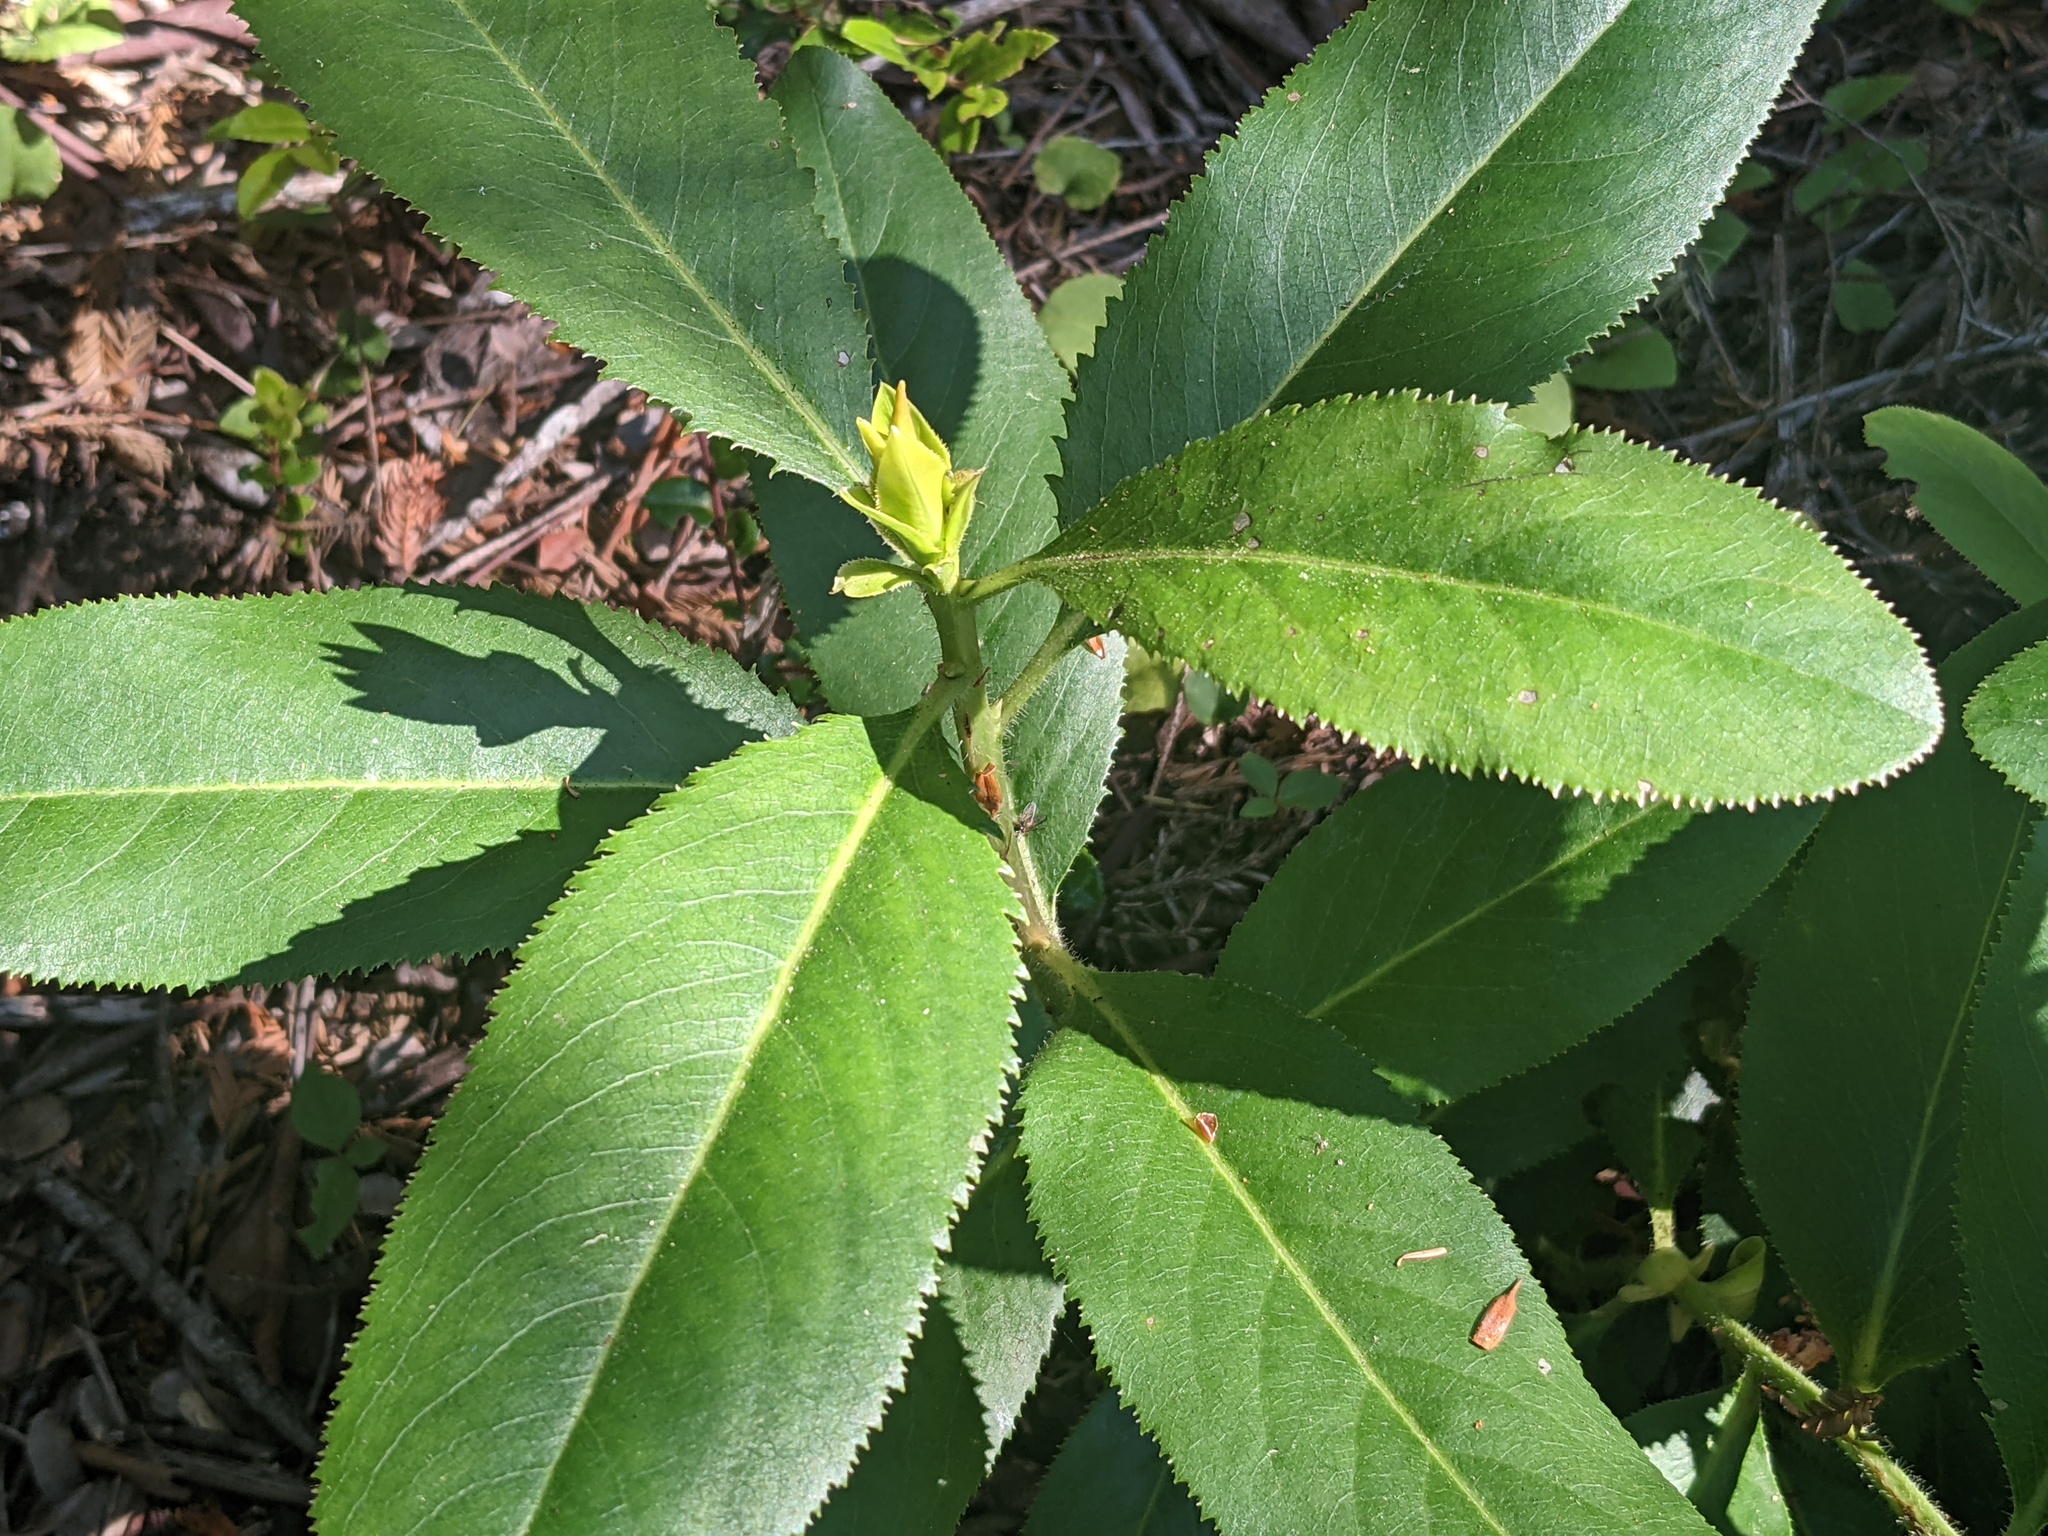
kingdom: Plantae
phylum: Tracheophyta
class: Magnoliopsida
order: Ericales
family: Ericaceae
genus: Arbutus
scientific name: Arbutus menziesii
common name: Pacific madrone
